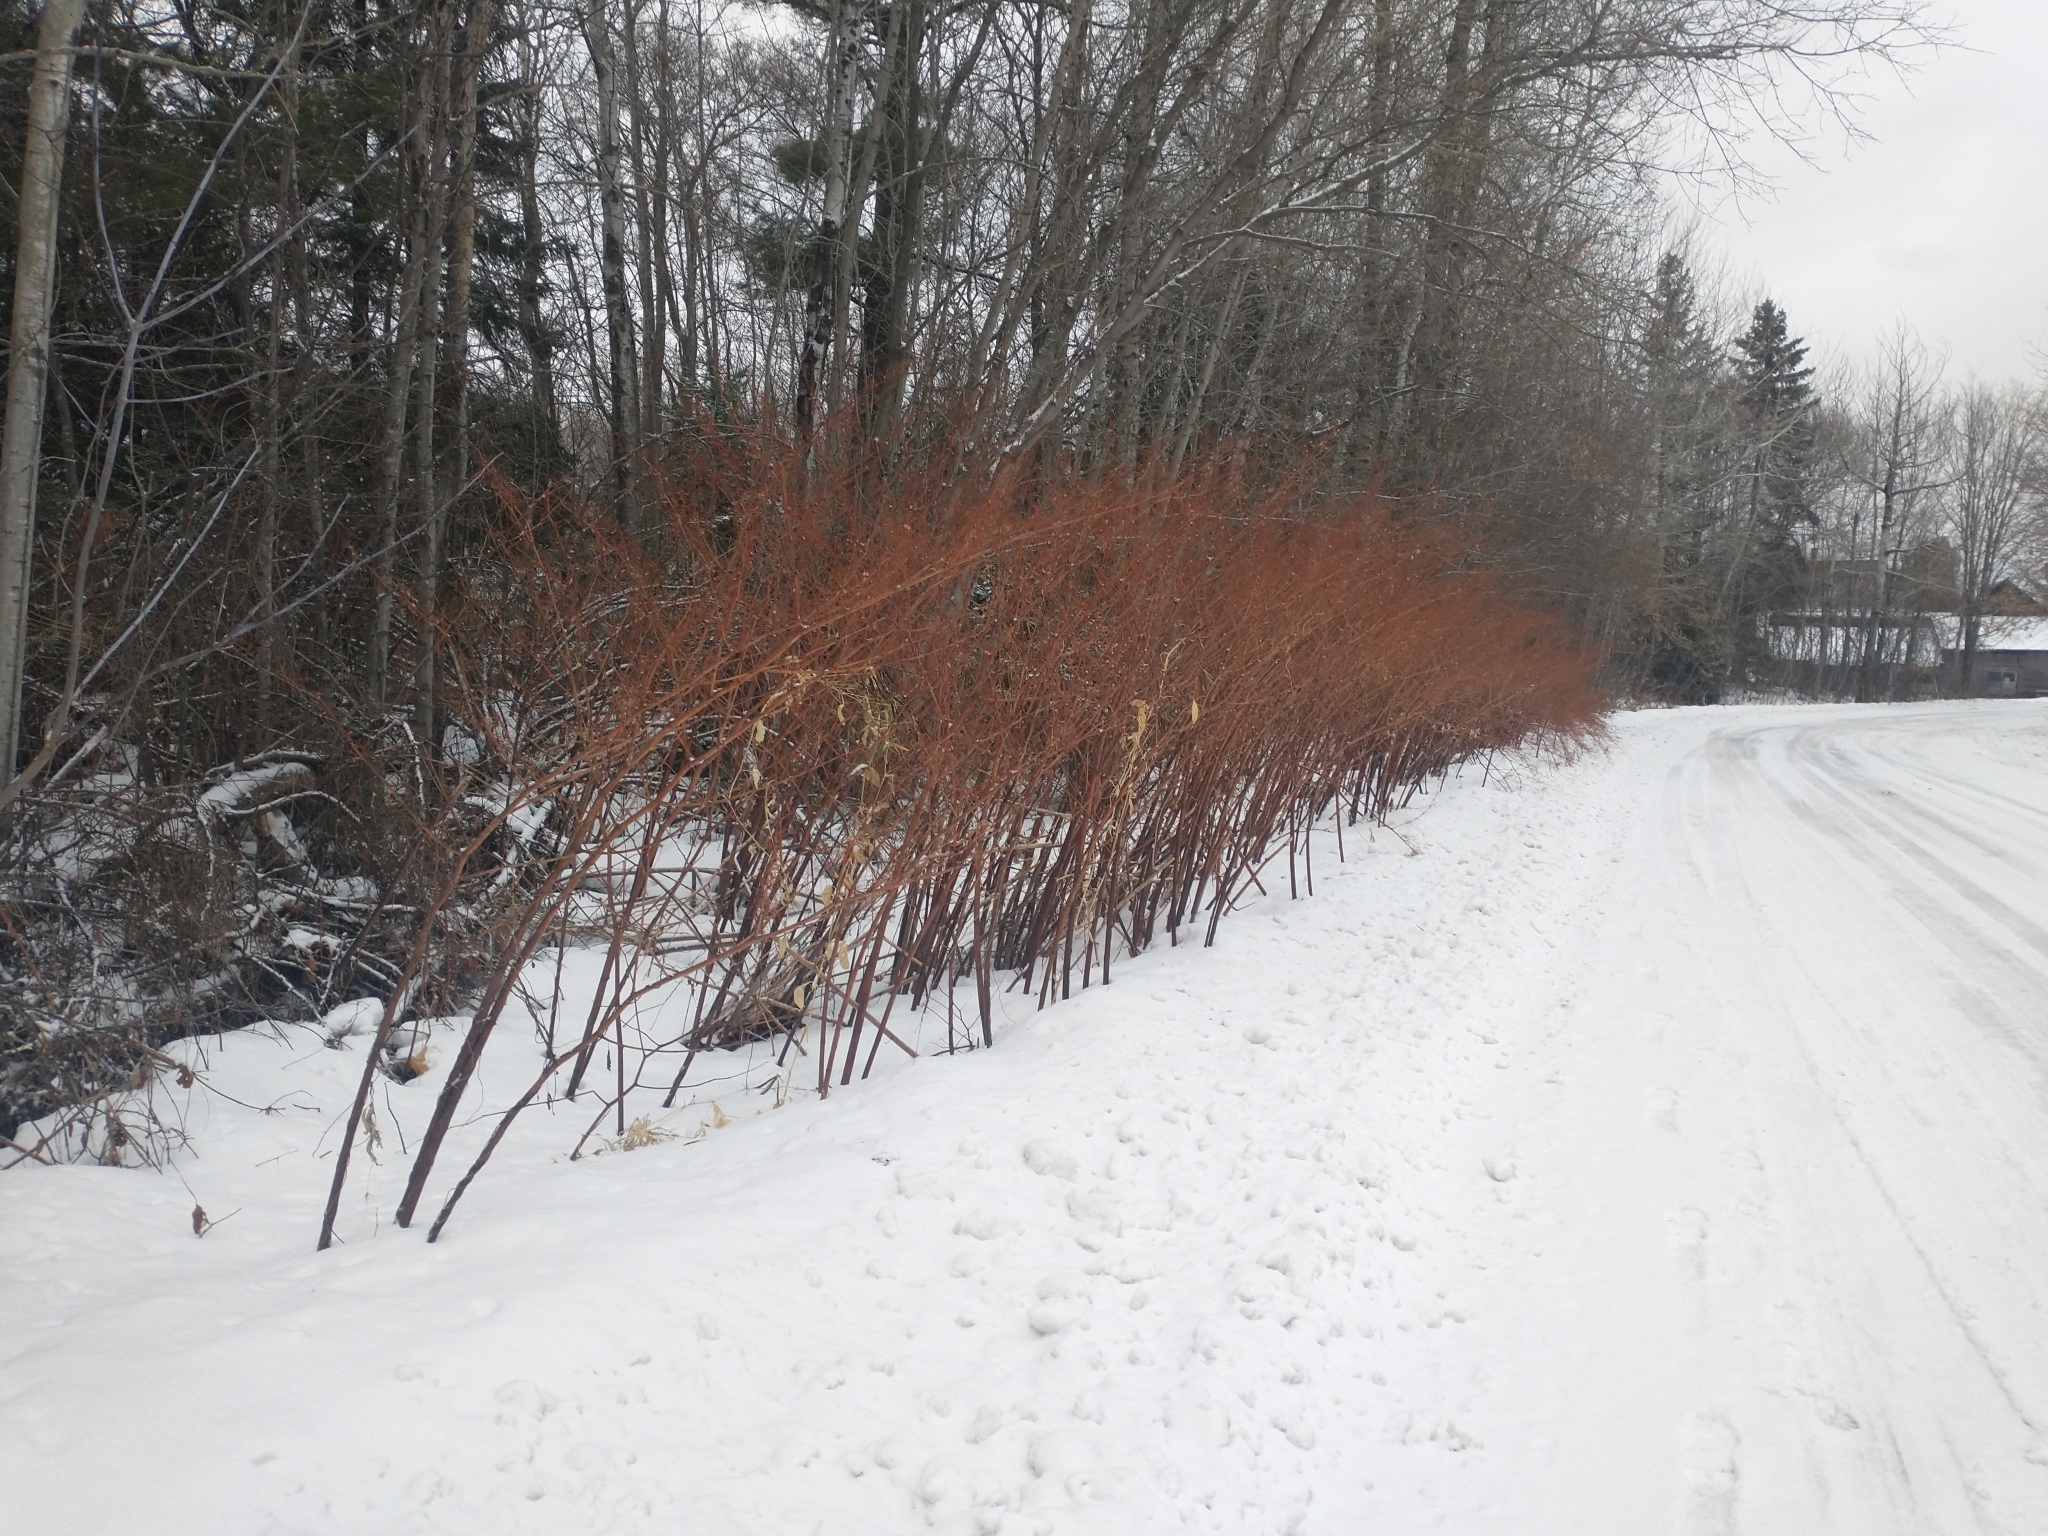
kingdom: Plantae
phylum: Tracheophyta
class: Magnoliopsida
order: Caryophyllales
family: Polygonaceae
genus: Reynoutria
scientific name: Reynoutria japonica
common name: Japanese knotweed
